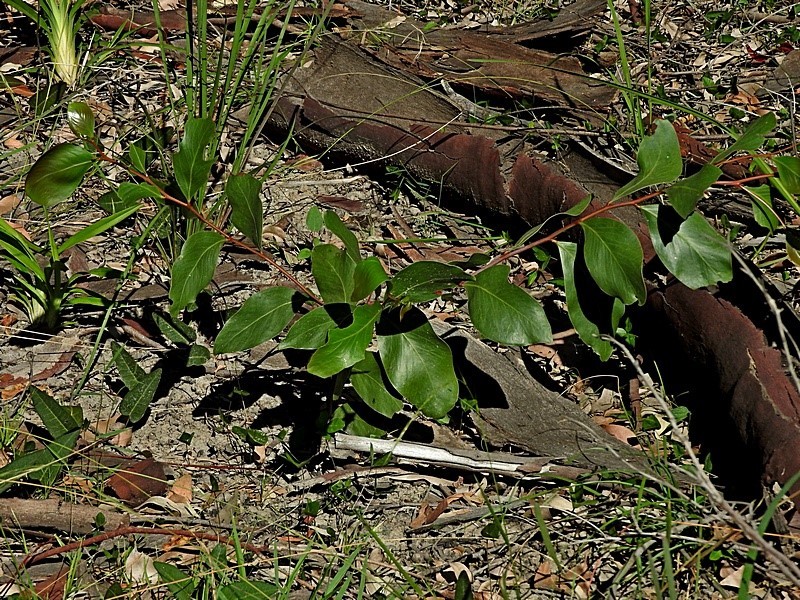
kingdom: Plantae
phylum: Tracheophyta
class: Magnoliopsida
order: Fabales
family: Fabaceae
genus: Acacia
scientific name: Acacia pedina
